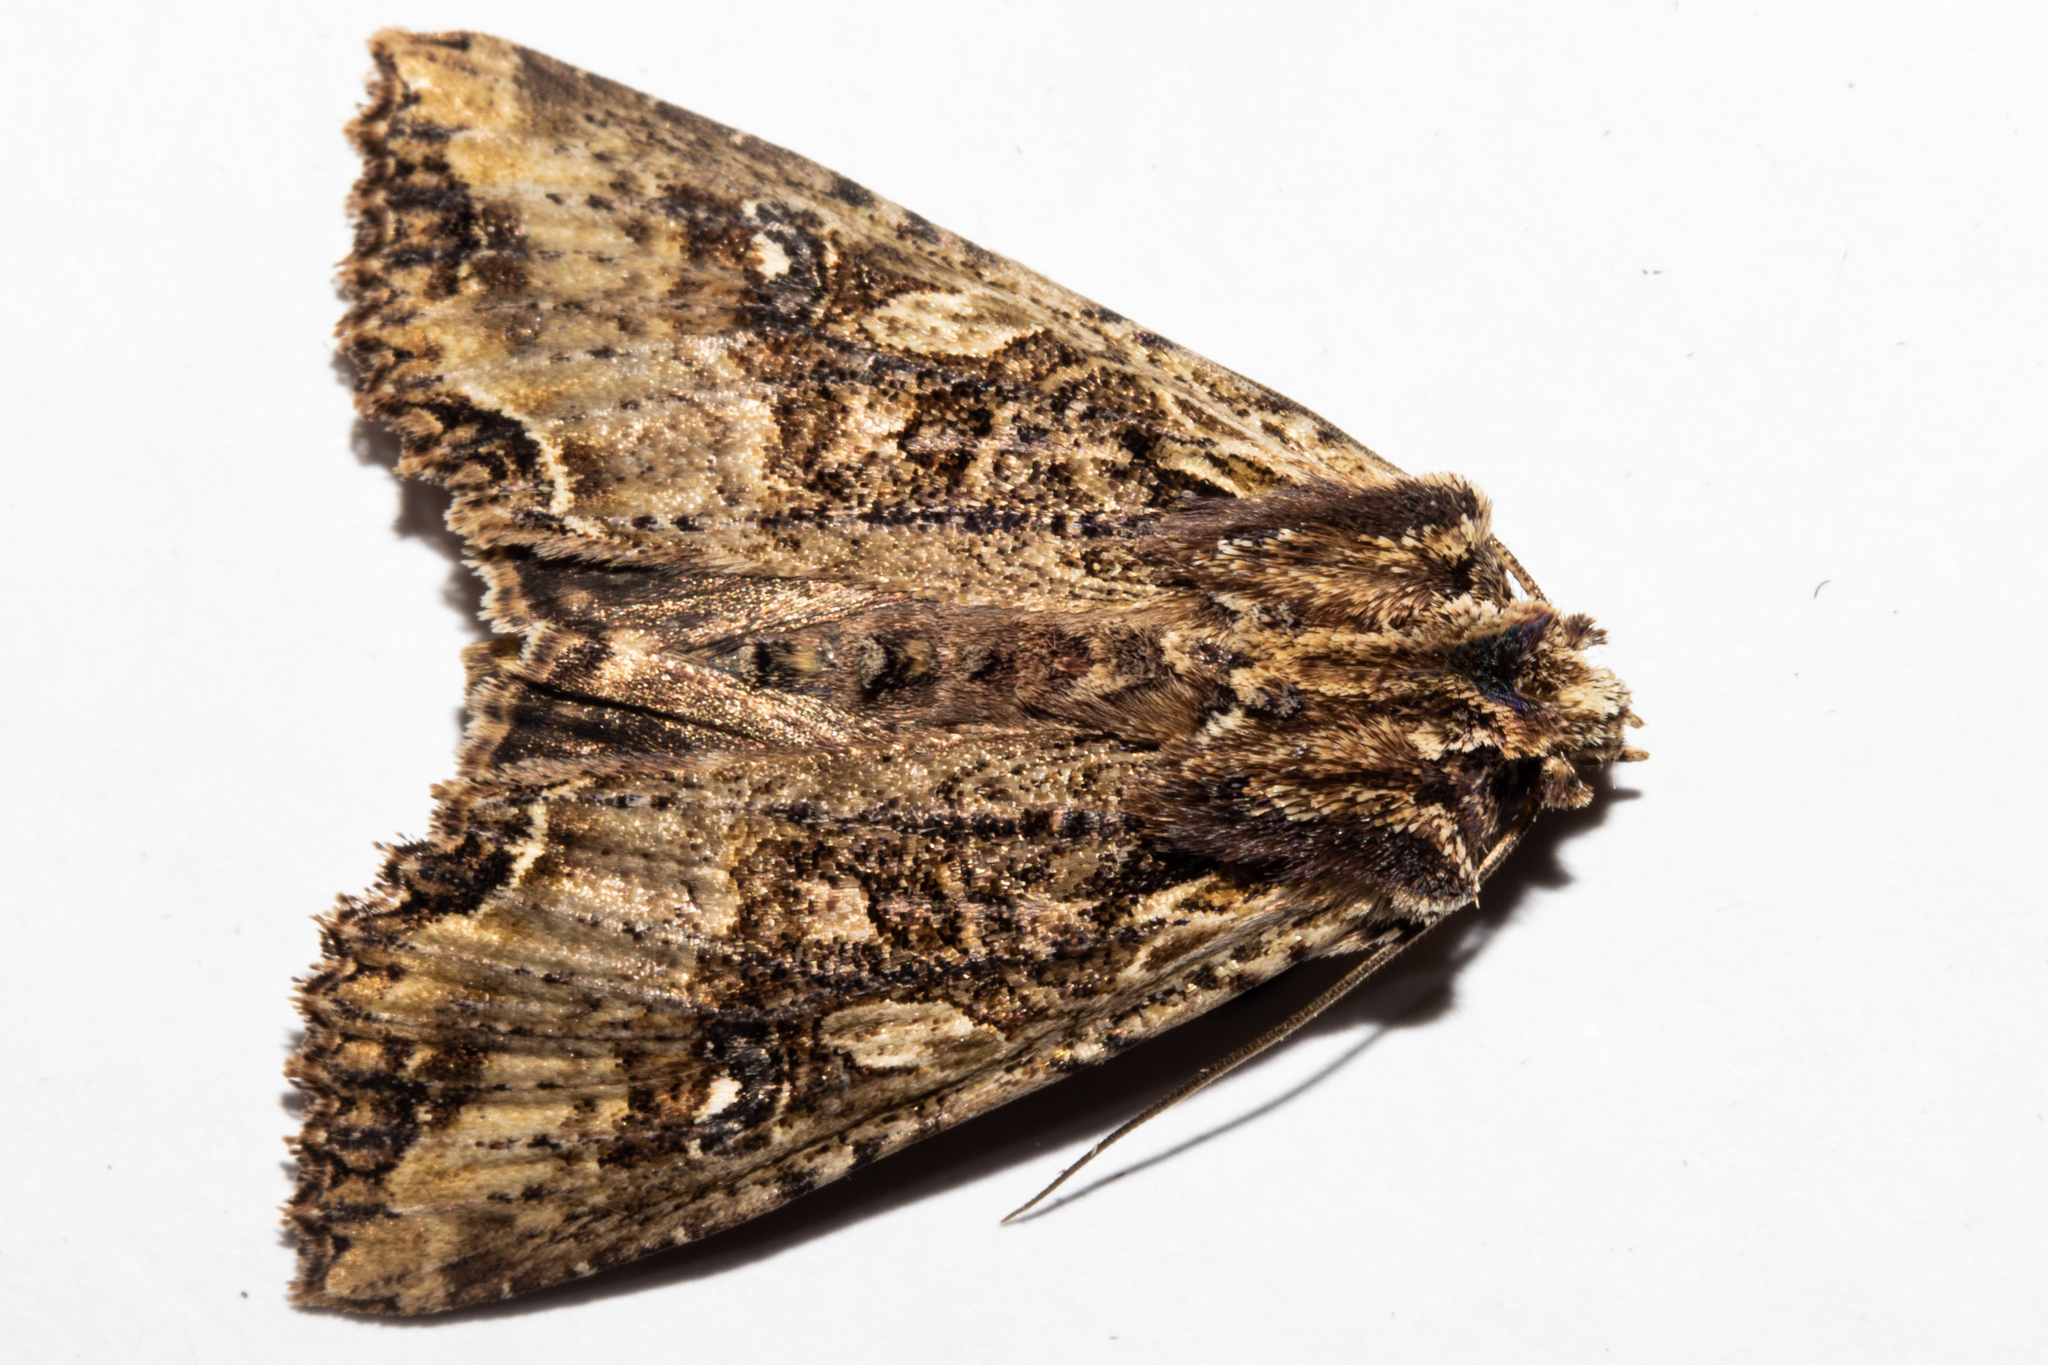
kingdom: Animalia
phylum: Arthropoda
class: Insecta
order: Lepidoptera
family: Noctuidae
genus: Meterana
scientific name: Meterana stipata
